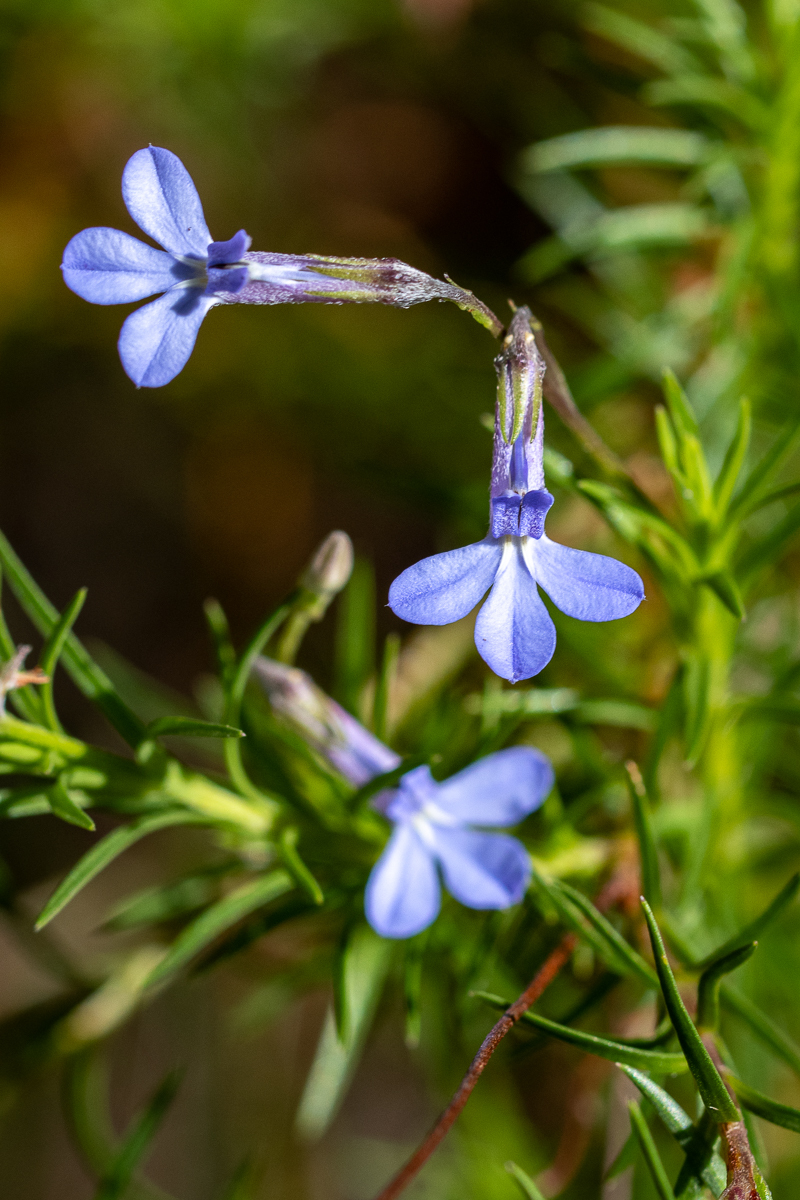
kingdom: Plantae
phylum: Tracheophyta
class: Magnoliopsida
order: Asterales
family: Campanulaceae
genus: Lobelia
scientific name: Lobelia pinifolia
